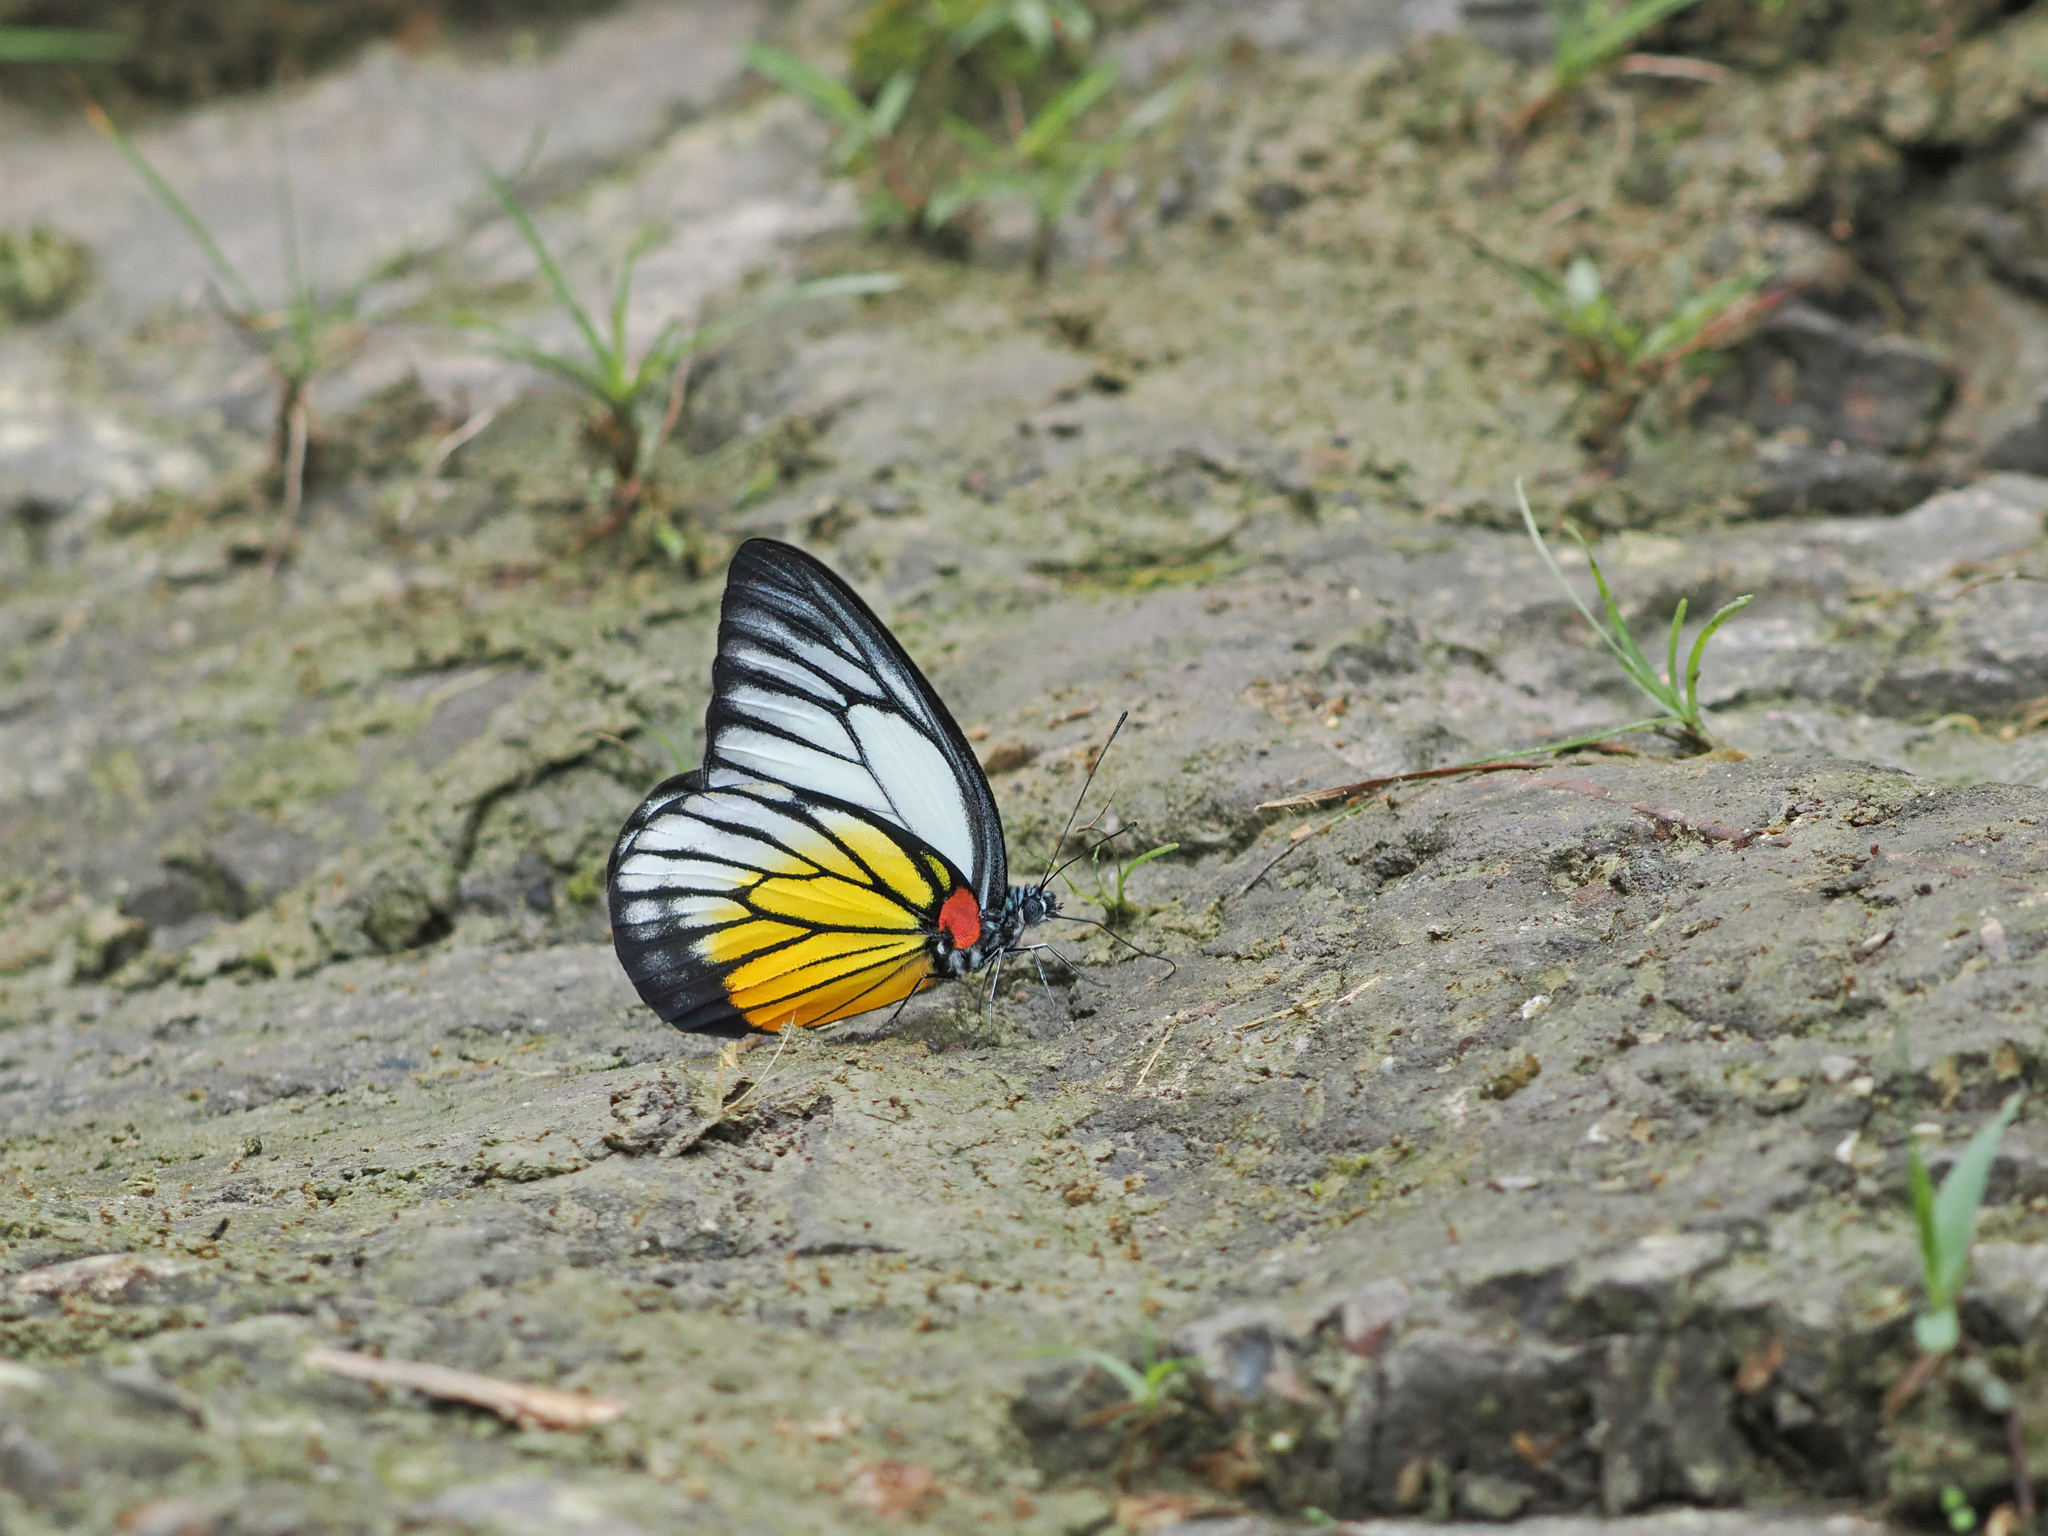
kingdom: Animalia
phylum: Arthropoda
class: Insecta
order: Lepidoptera
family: Pieridae
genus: Prioneris
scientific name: Prioneris philonome
